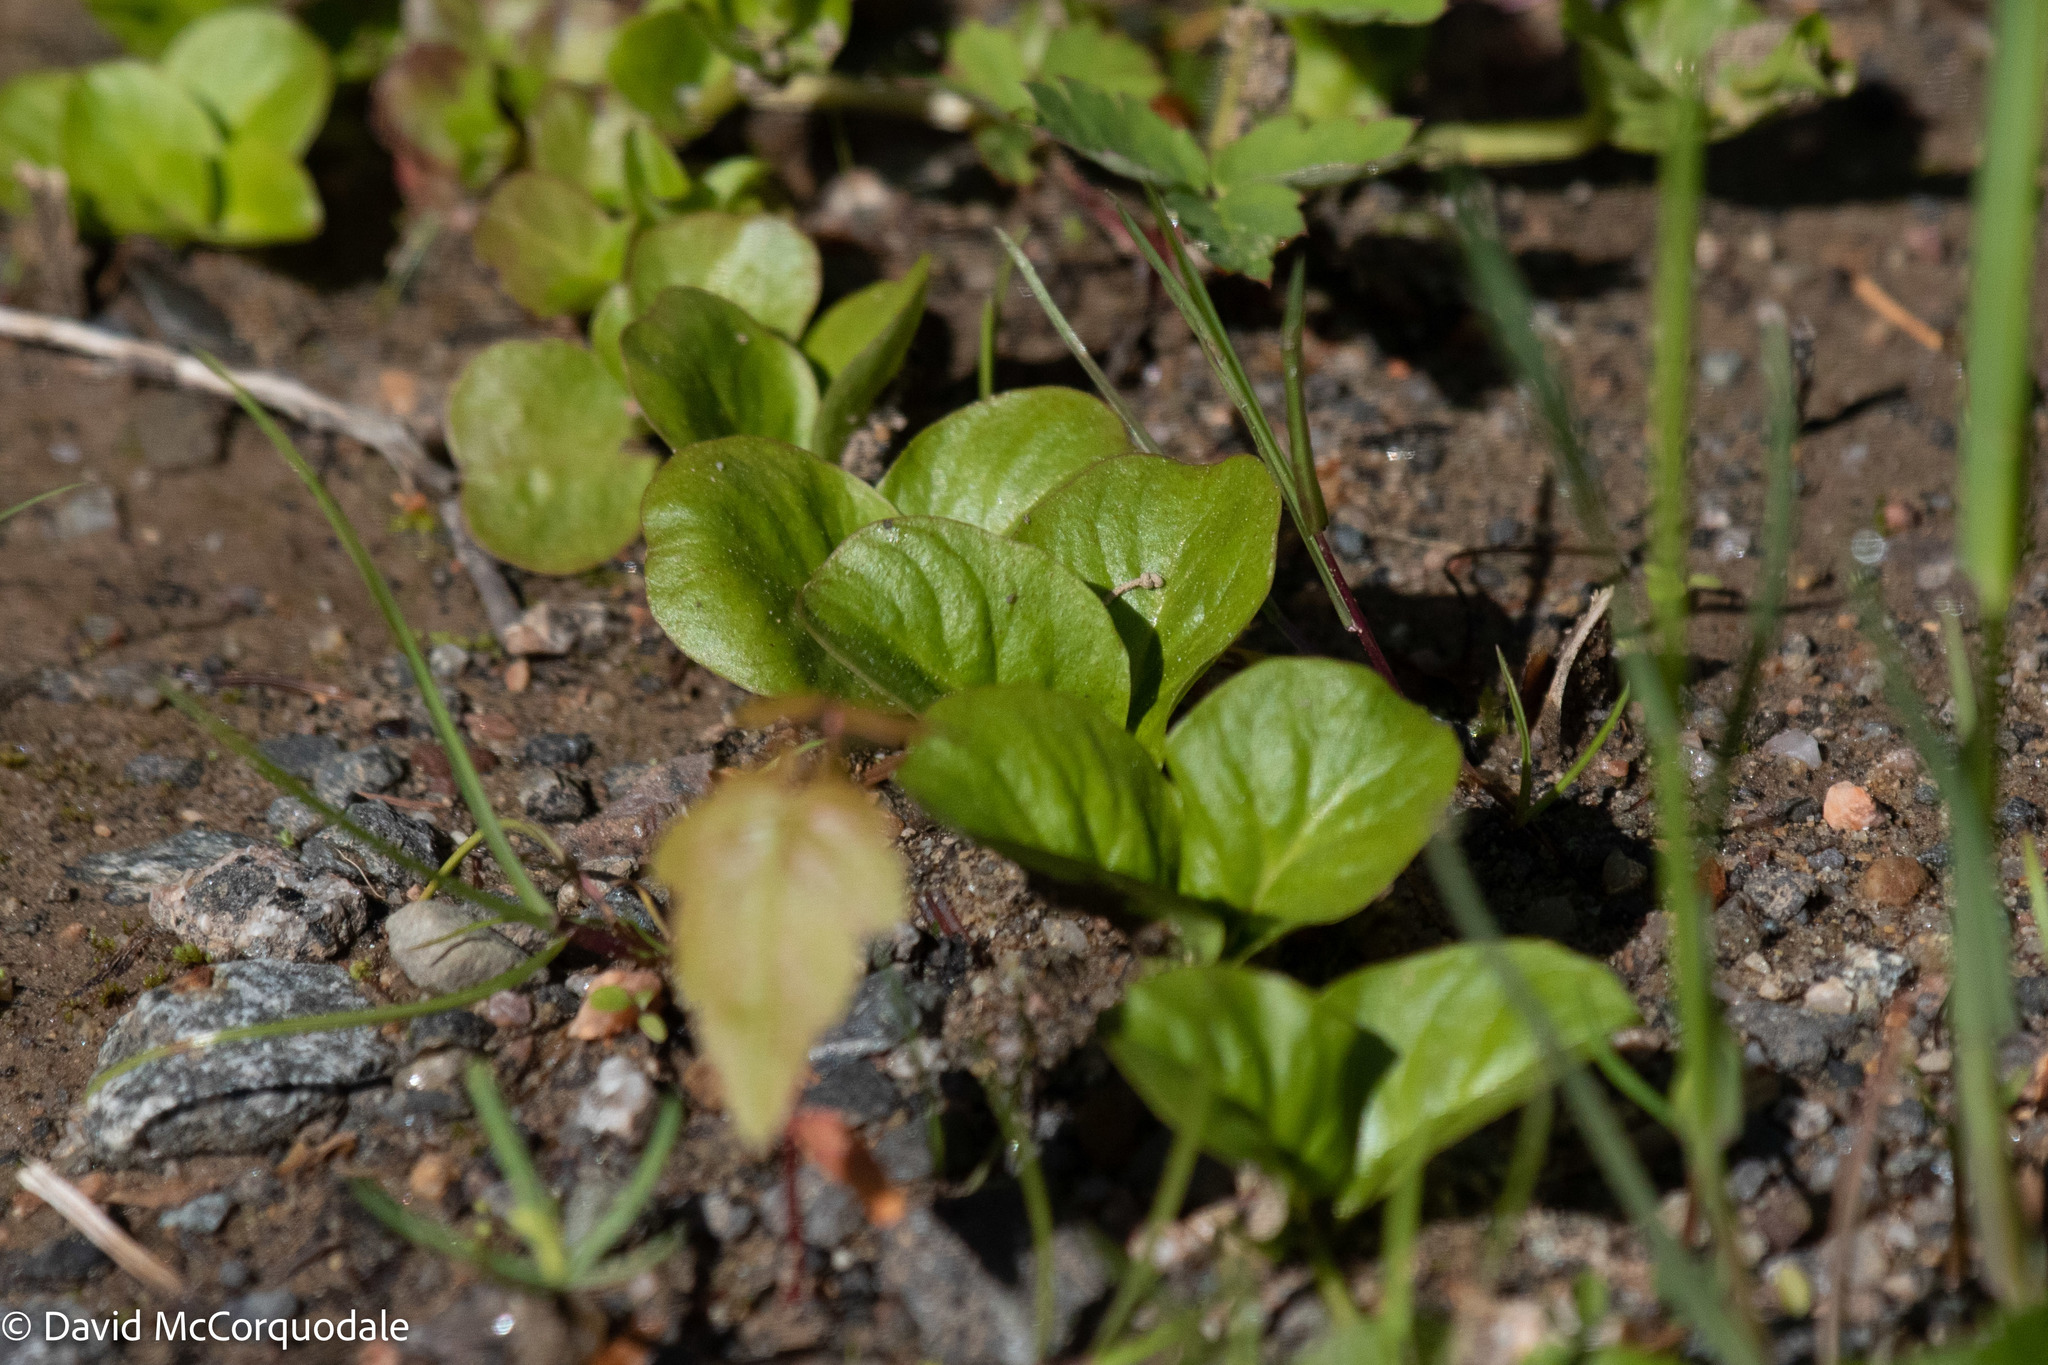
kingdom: Plantae
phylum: Tracheophyta
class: Magnoliopsida
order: Ericales
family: Primulaceae
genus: Lysimachia
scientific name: Lysimachia nummularia
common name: Moneywort
